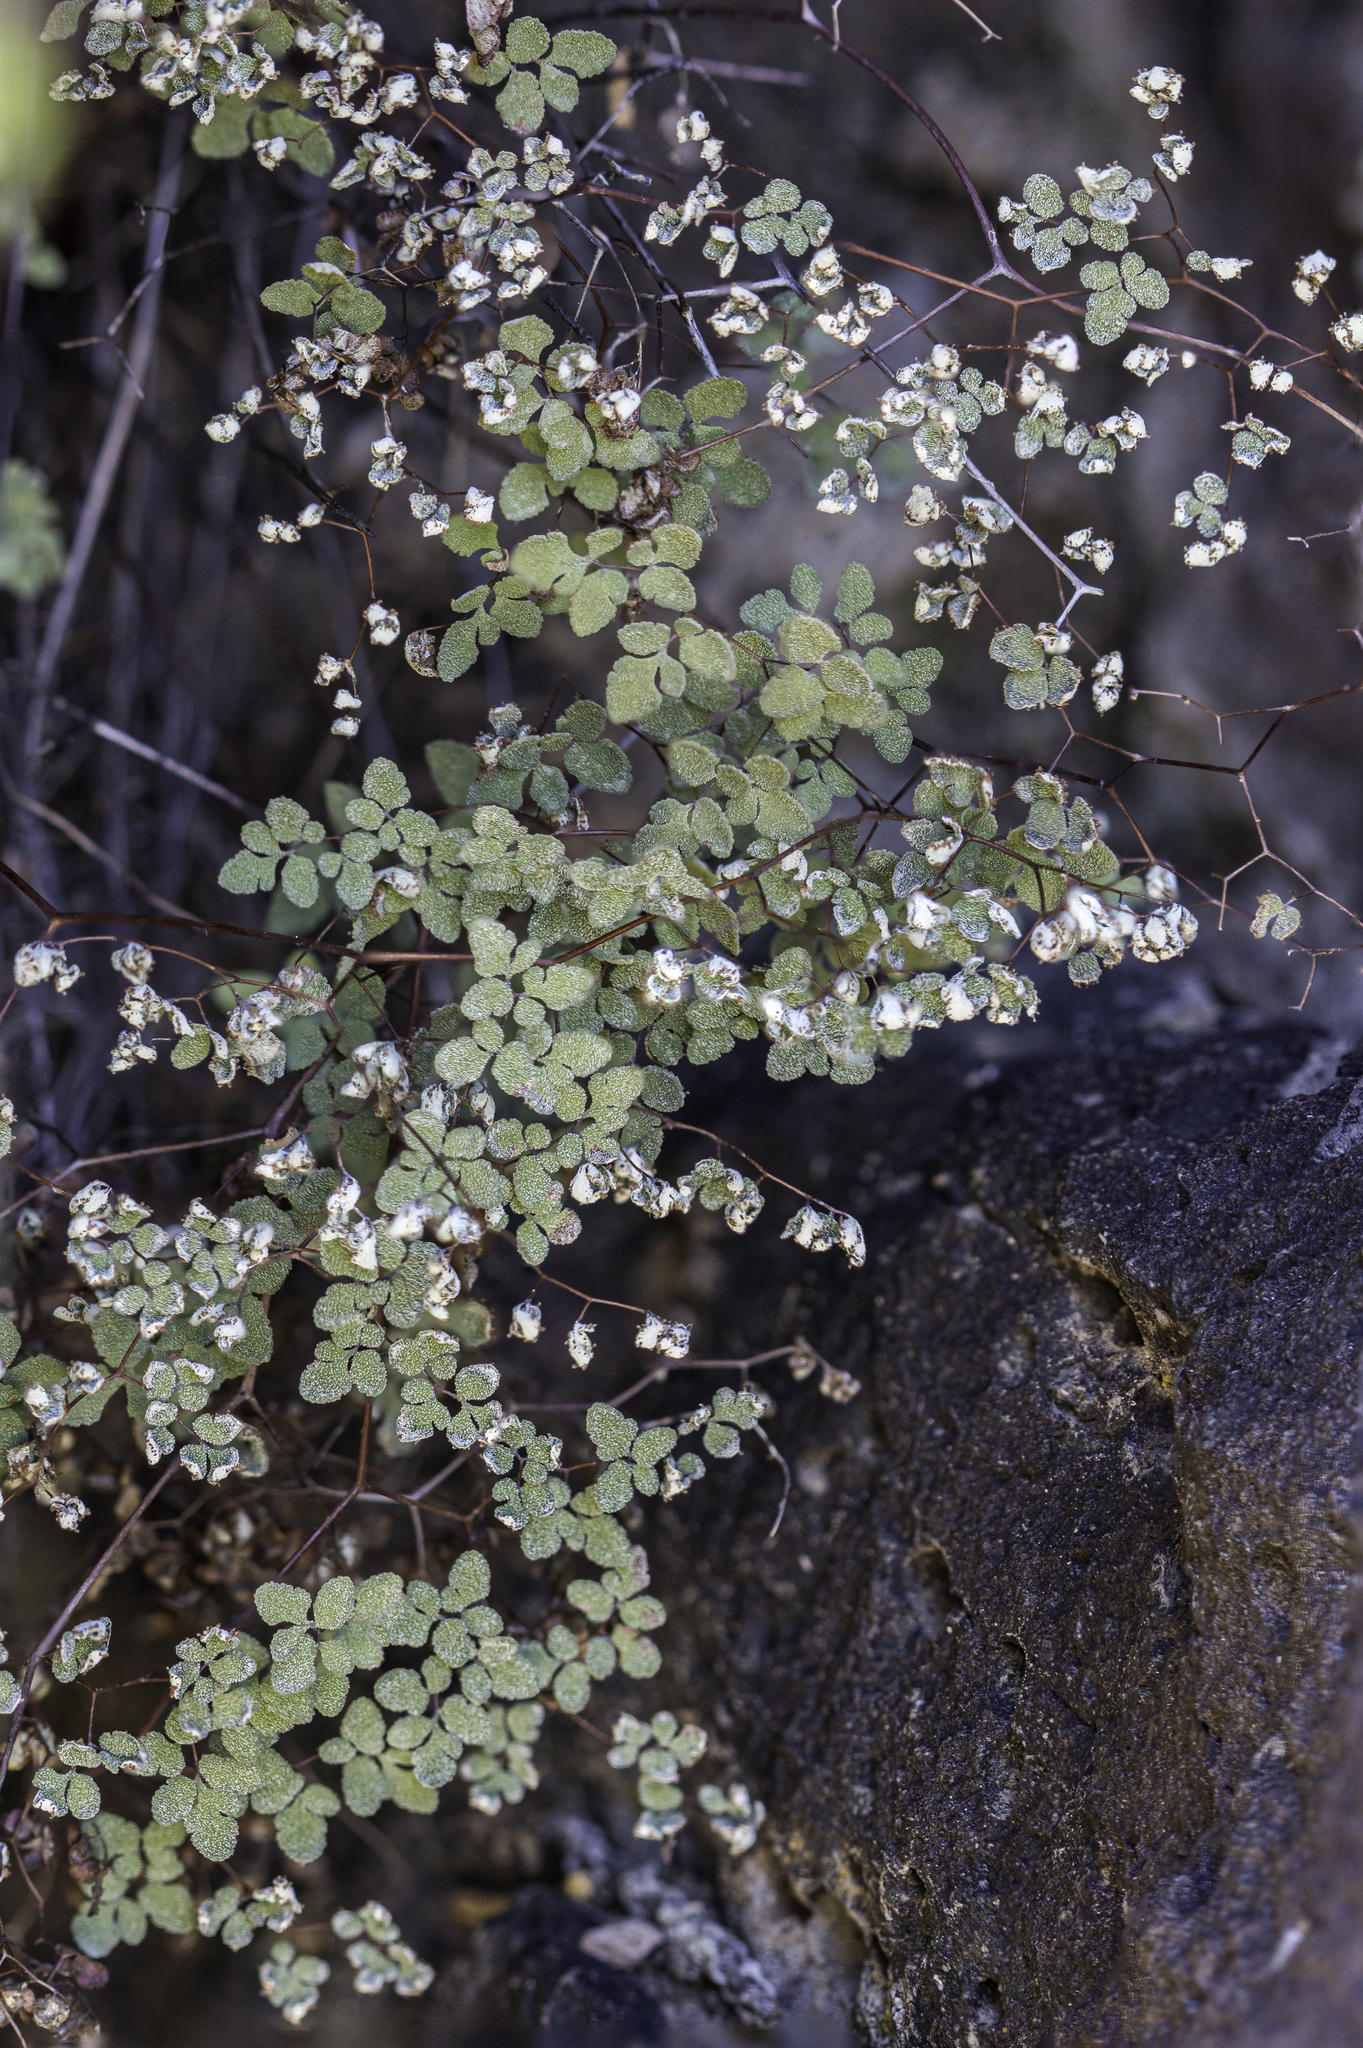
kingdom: Plantae
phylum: Tracheophyta
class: Polypodiopsida
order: Polypodiales
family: Pteridaceae
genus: Argyrochosma
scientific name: Argyrochosma fendleri
